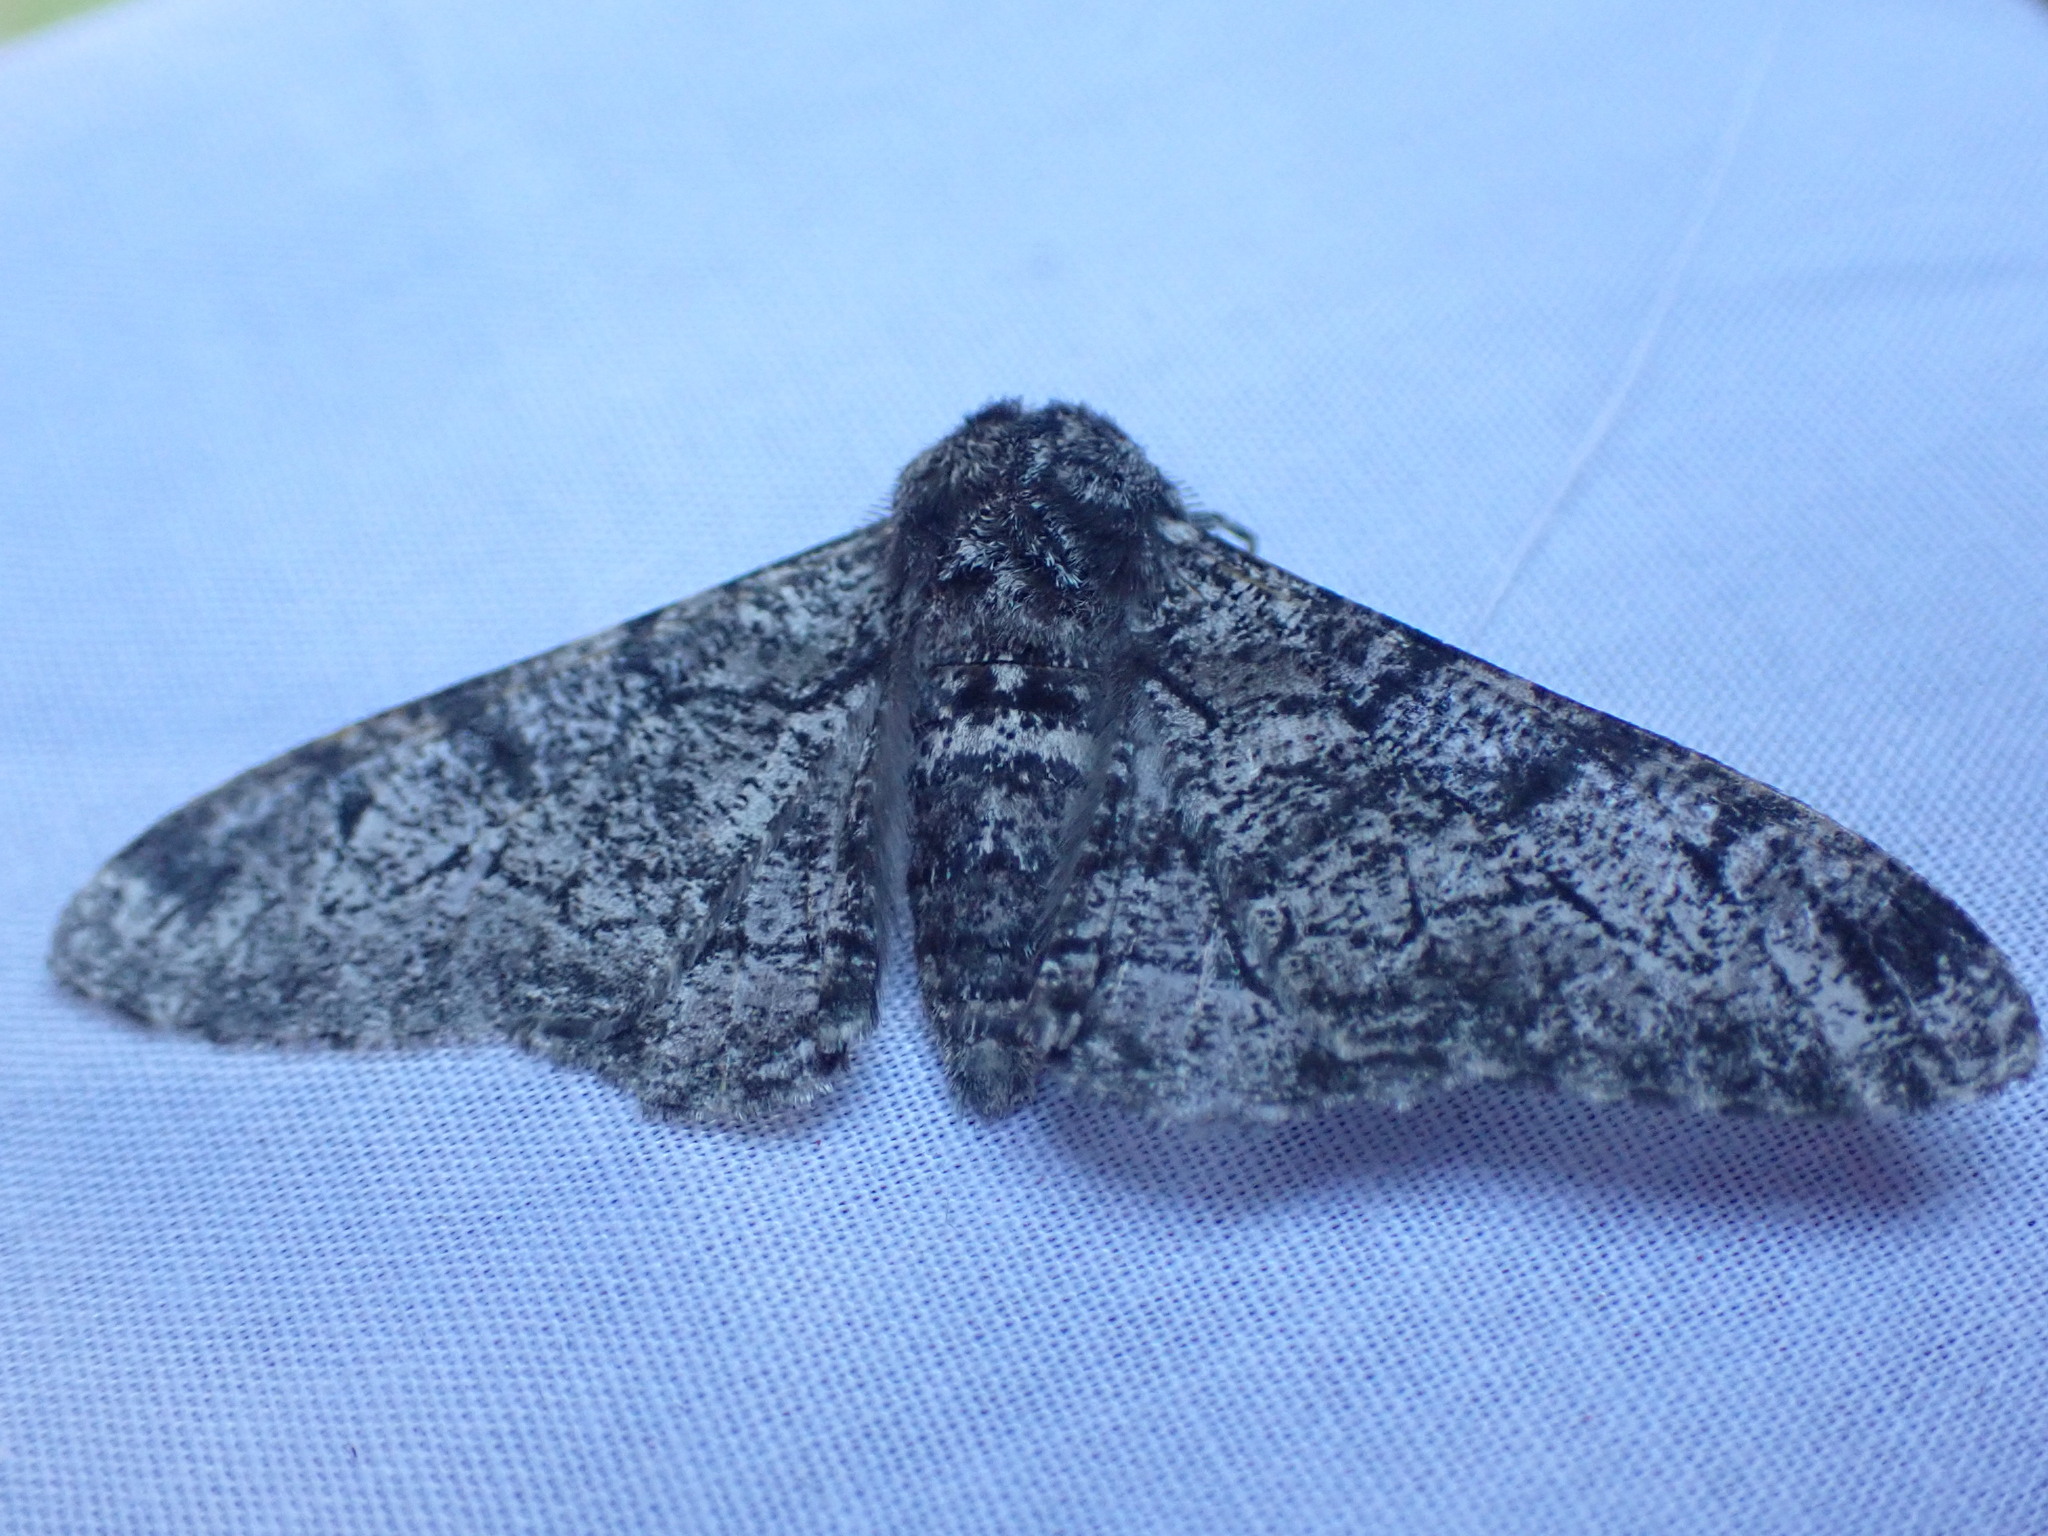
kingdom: Animalia
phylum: Arthropoda
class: Insecta
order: Lepidoptera
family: Geometridae
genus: Biston
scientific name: Biston betularia
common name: Peppered moth
